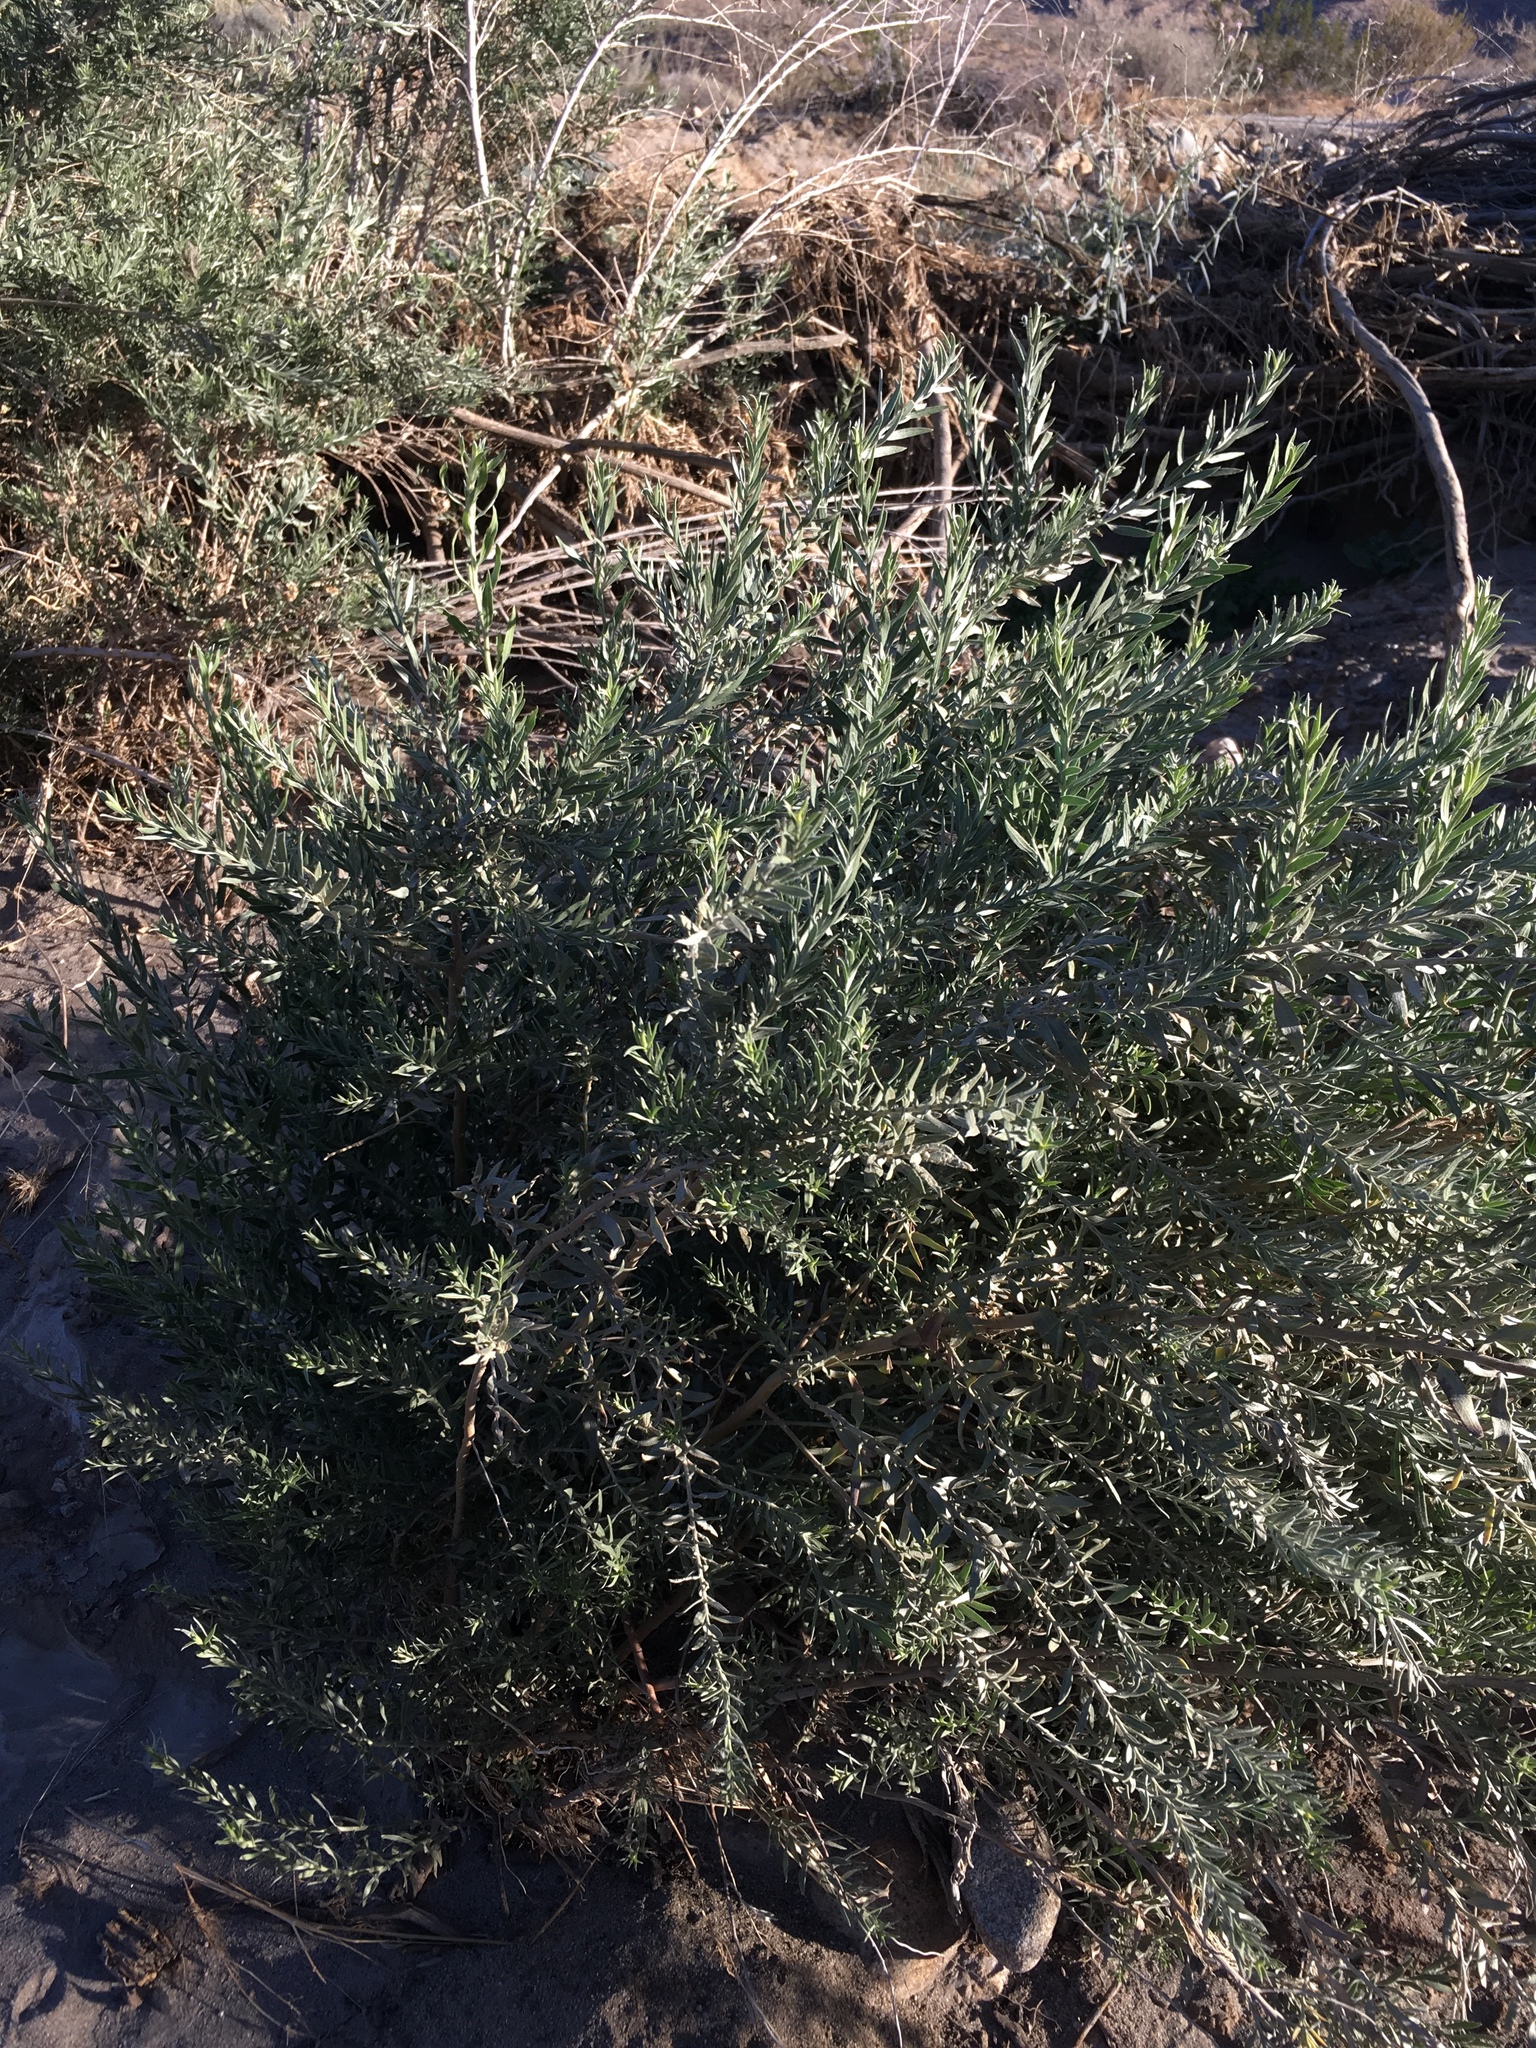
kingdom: Plantae
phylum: Tracheophyta
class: Magnoliopsida
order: Asterales
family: Asteraceae
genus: Pluchea
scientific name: Pluchea sericea
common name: Arrow-weed
